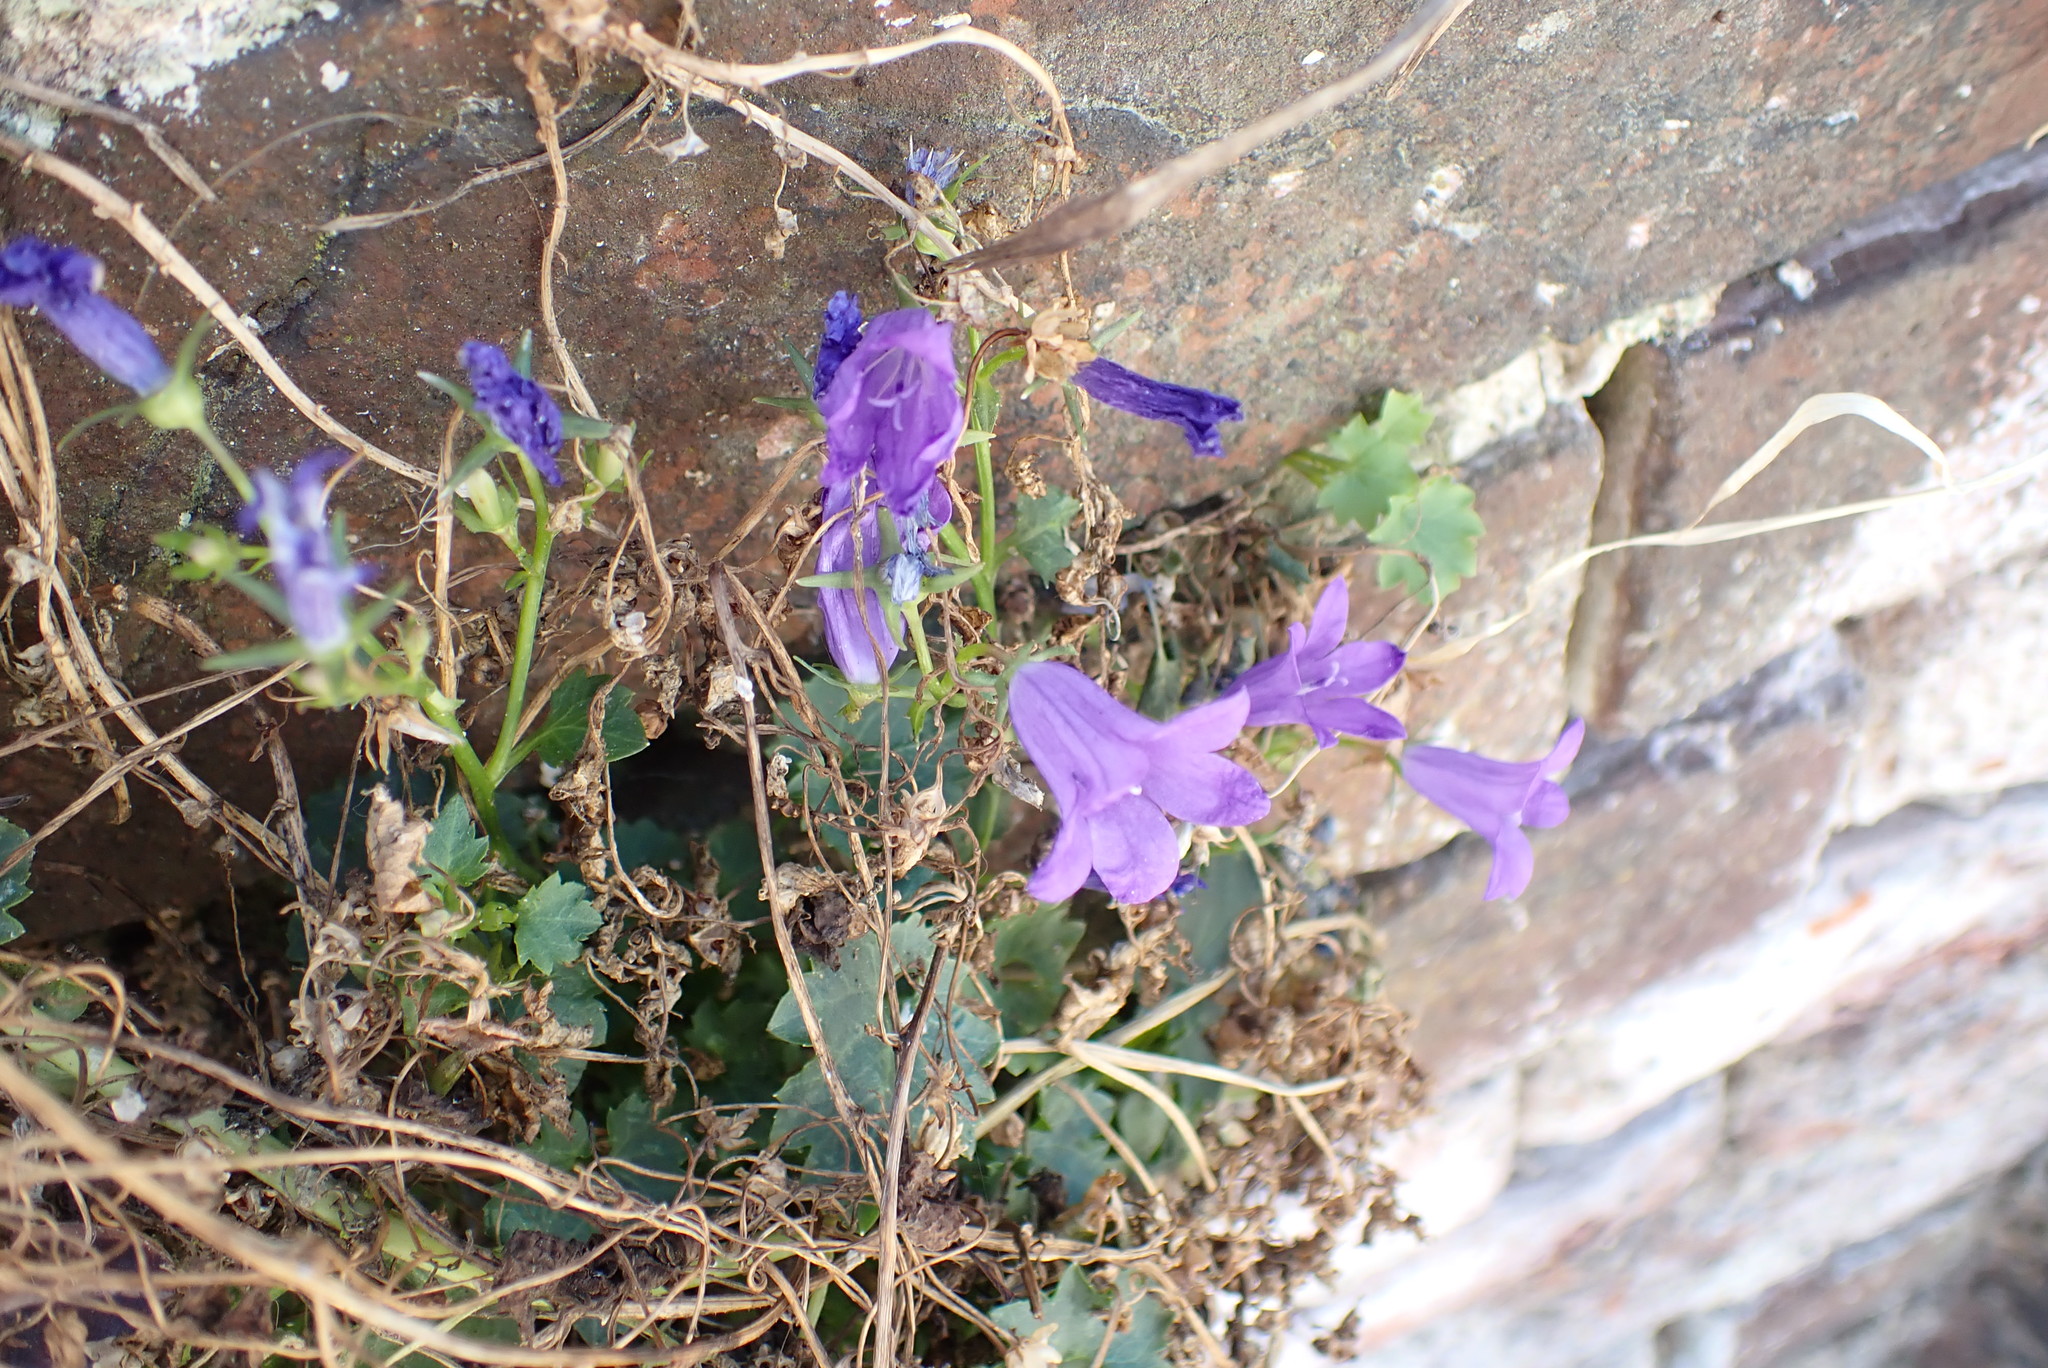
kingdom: Plantae
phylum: Tracheophyta
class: Magnoliopsida
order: Asterales
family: Campanulaceae
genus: Campanula
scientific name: Campanula portenschlagiana
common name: Adria bellflower
